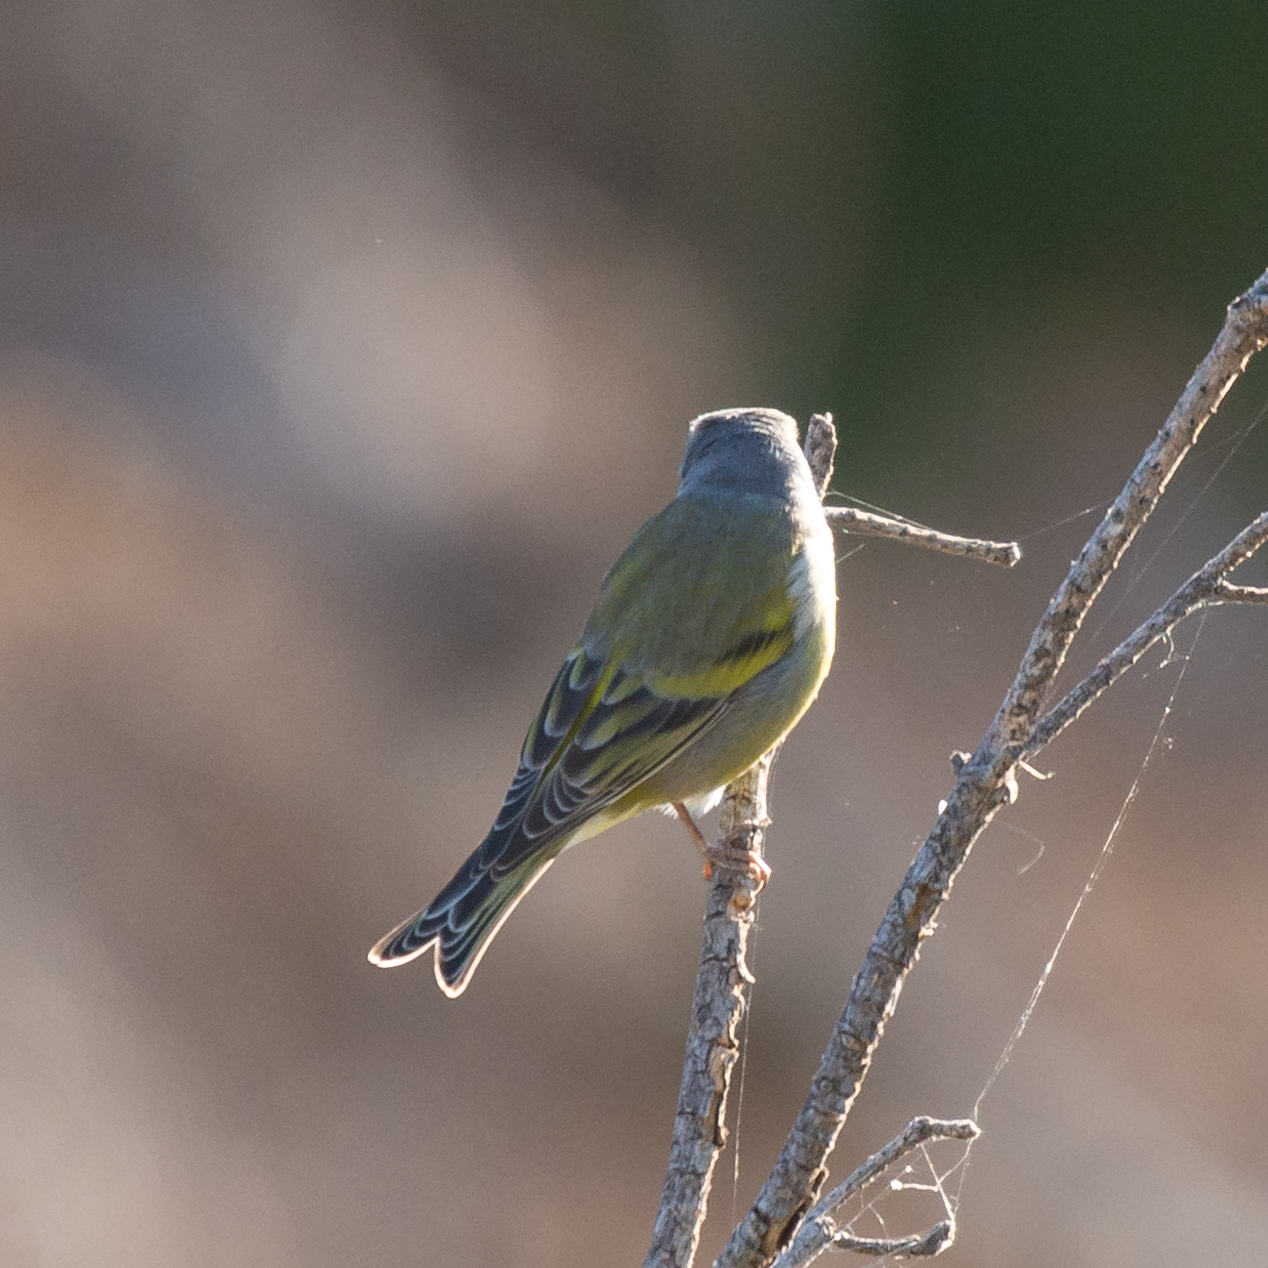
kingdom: Animalia
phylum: Chordata
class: Aves
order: Passeriformes
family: Fringillidae
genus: Carduelis
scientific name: Carduelis citrinella
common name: Citril finch
